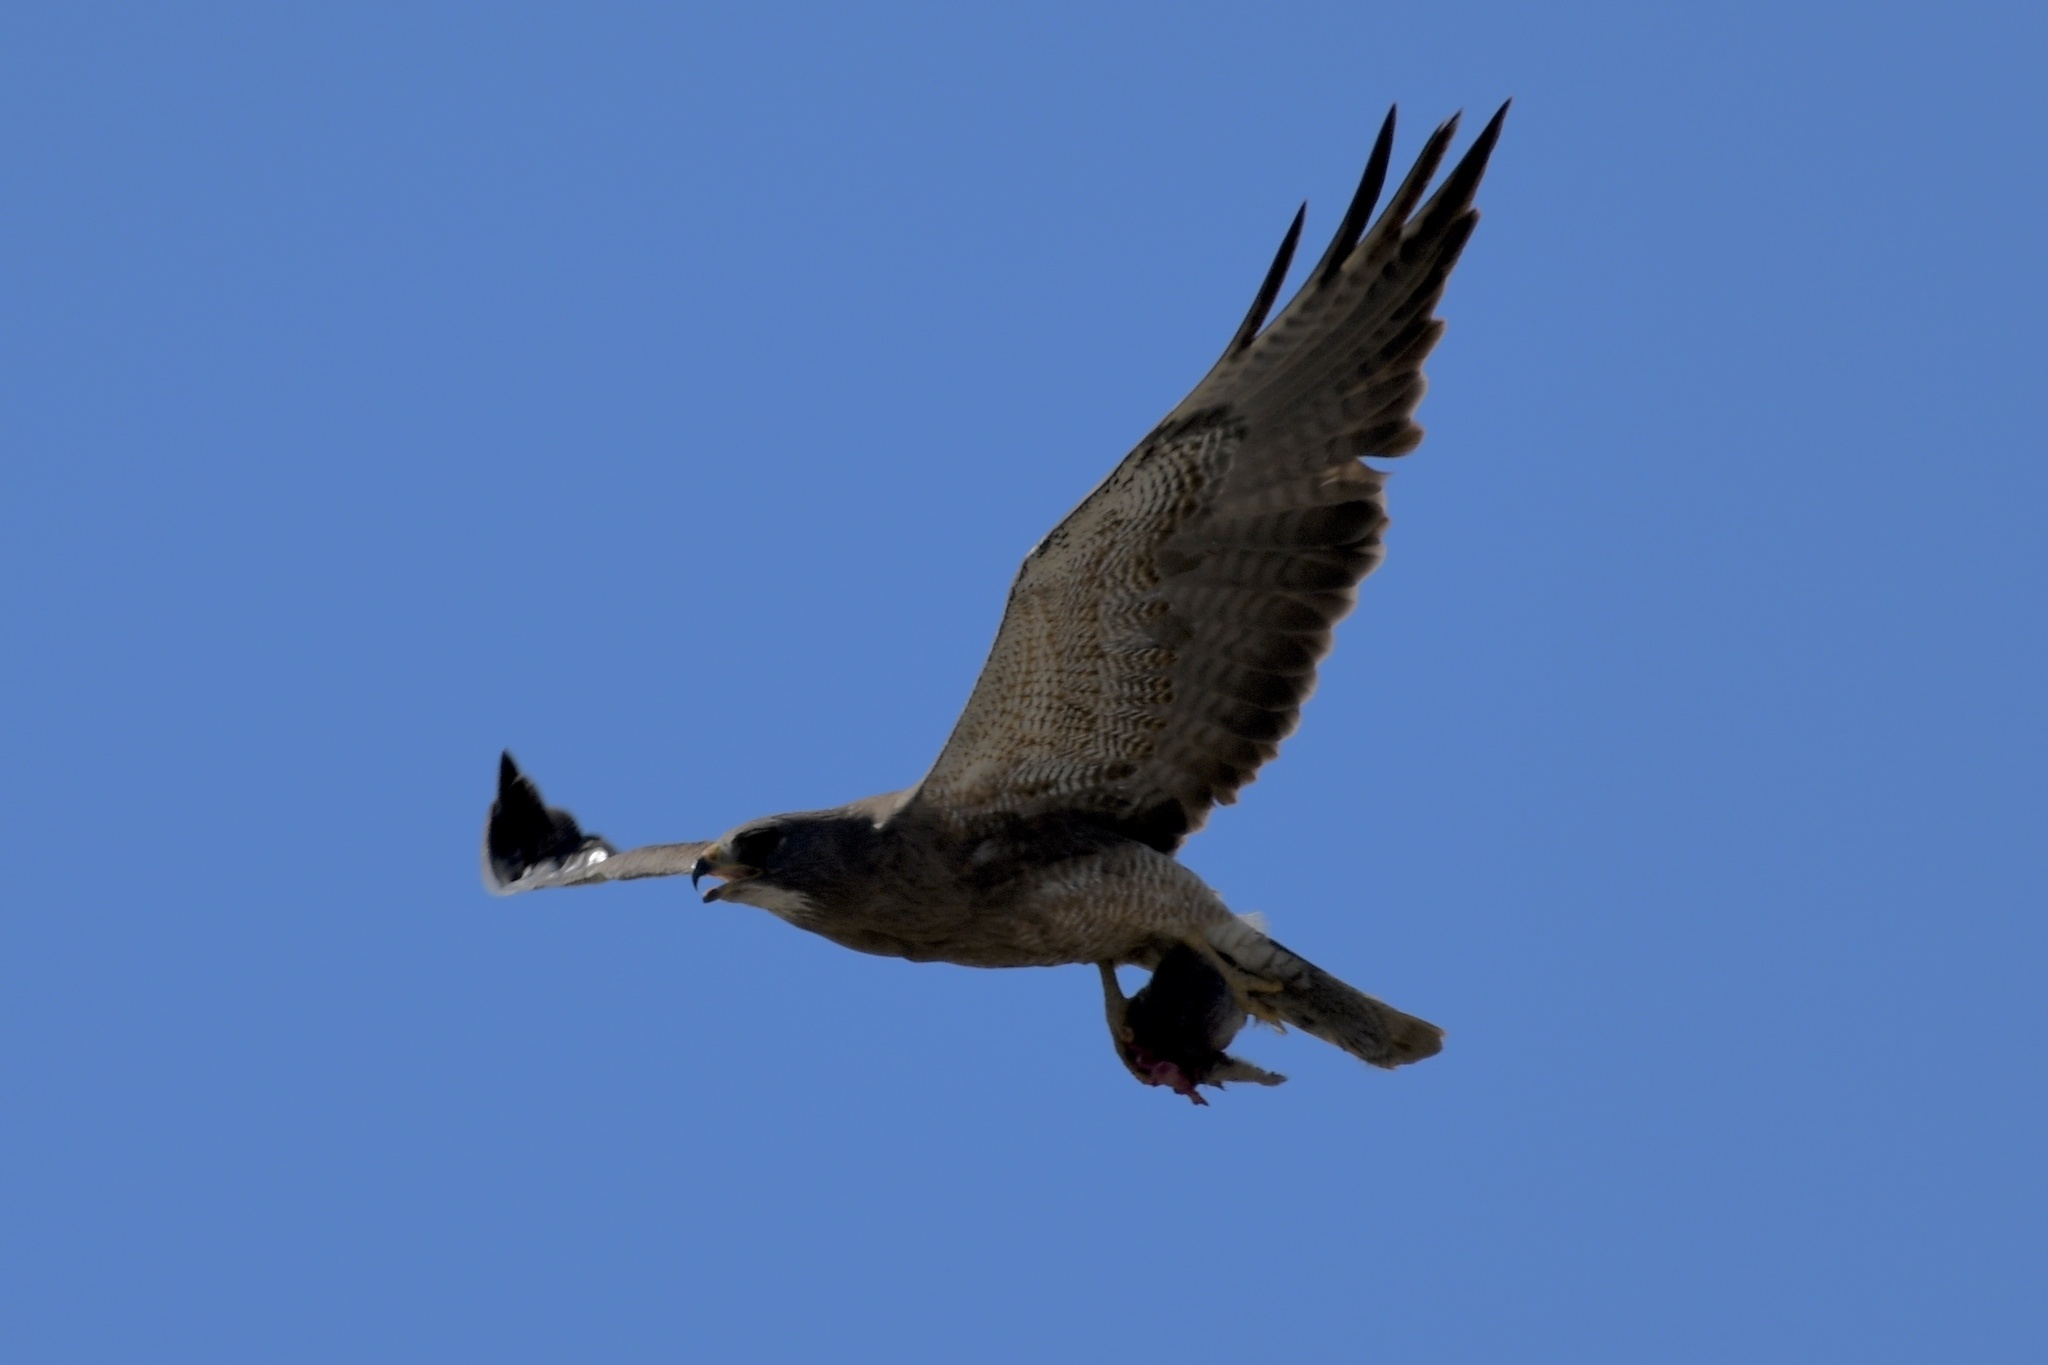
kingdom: Animalia
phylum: Chordata
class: Aves
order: Accipitriformes
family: Accipitridae
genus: Buteo
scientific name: Buteo swainsoni
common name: Swainson's hawk
